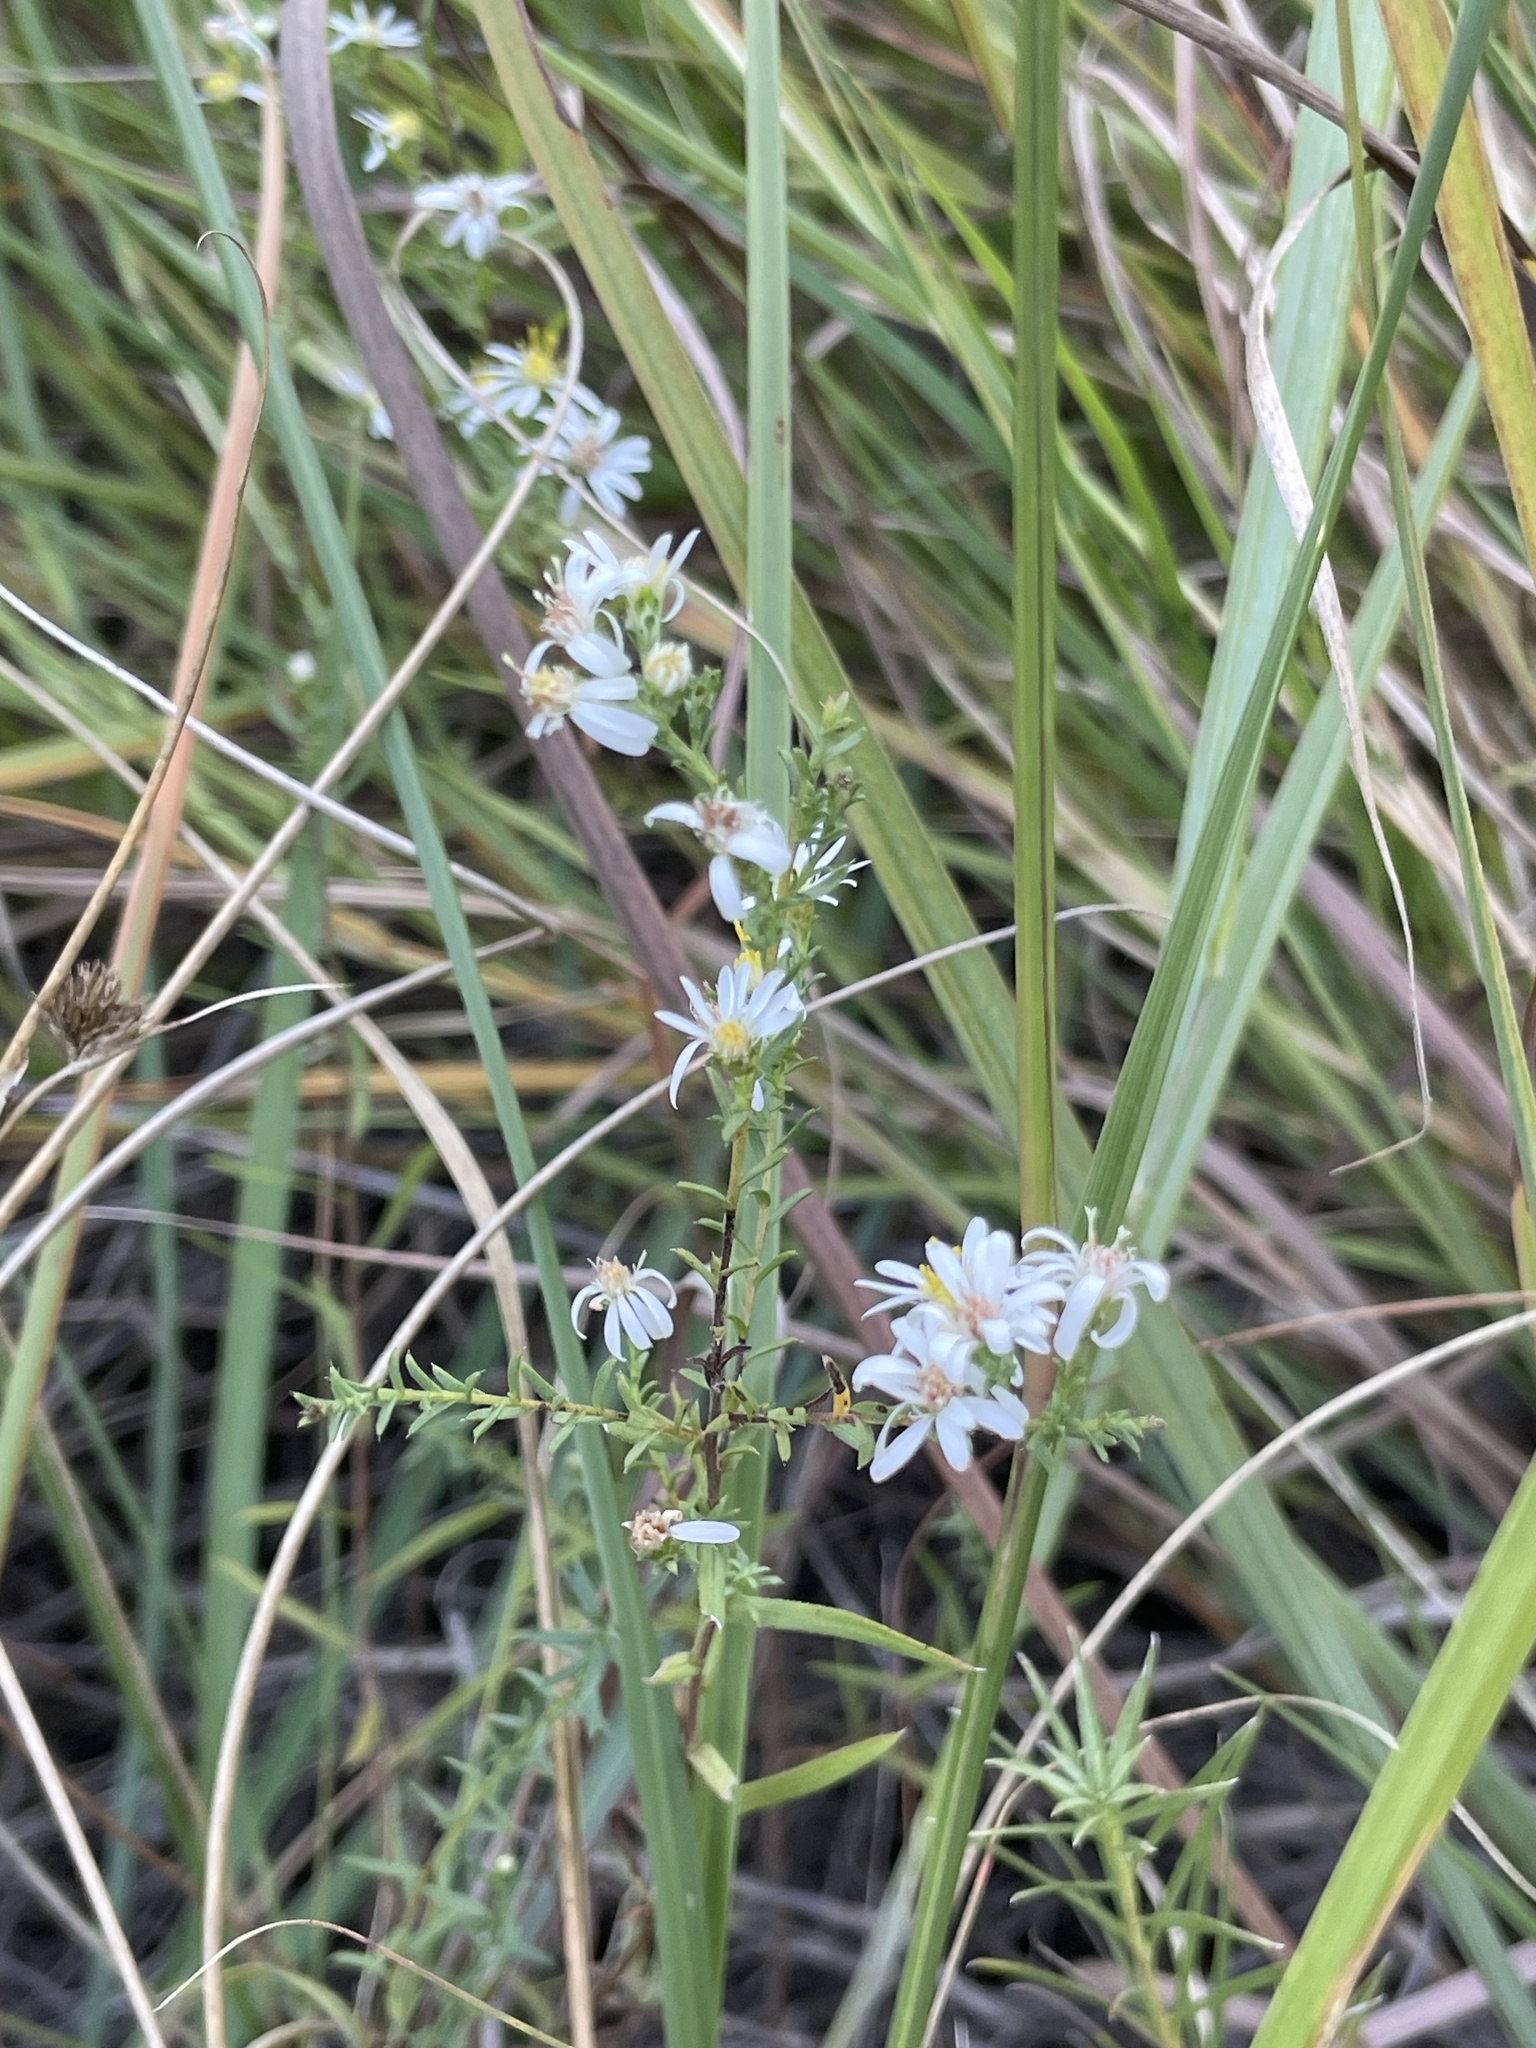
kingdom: Plantae
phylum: Tracheophyta
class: Magnoliopsida
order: Asterales
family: Asteraceae
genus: Symphyotrichum
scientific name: Symphyotrichum ericoides
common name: Heath aster
